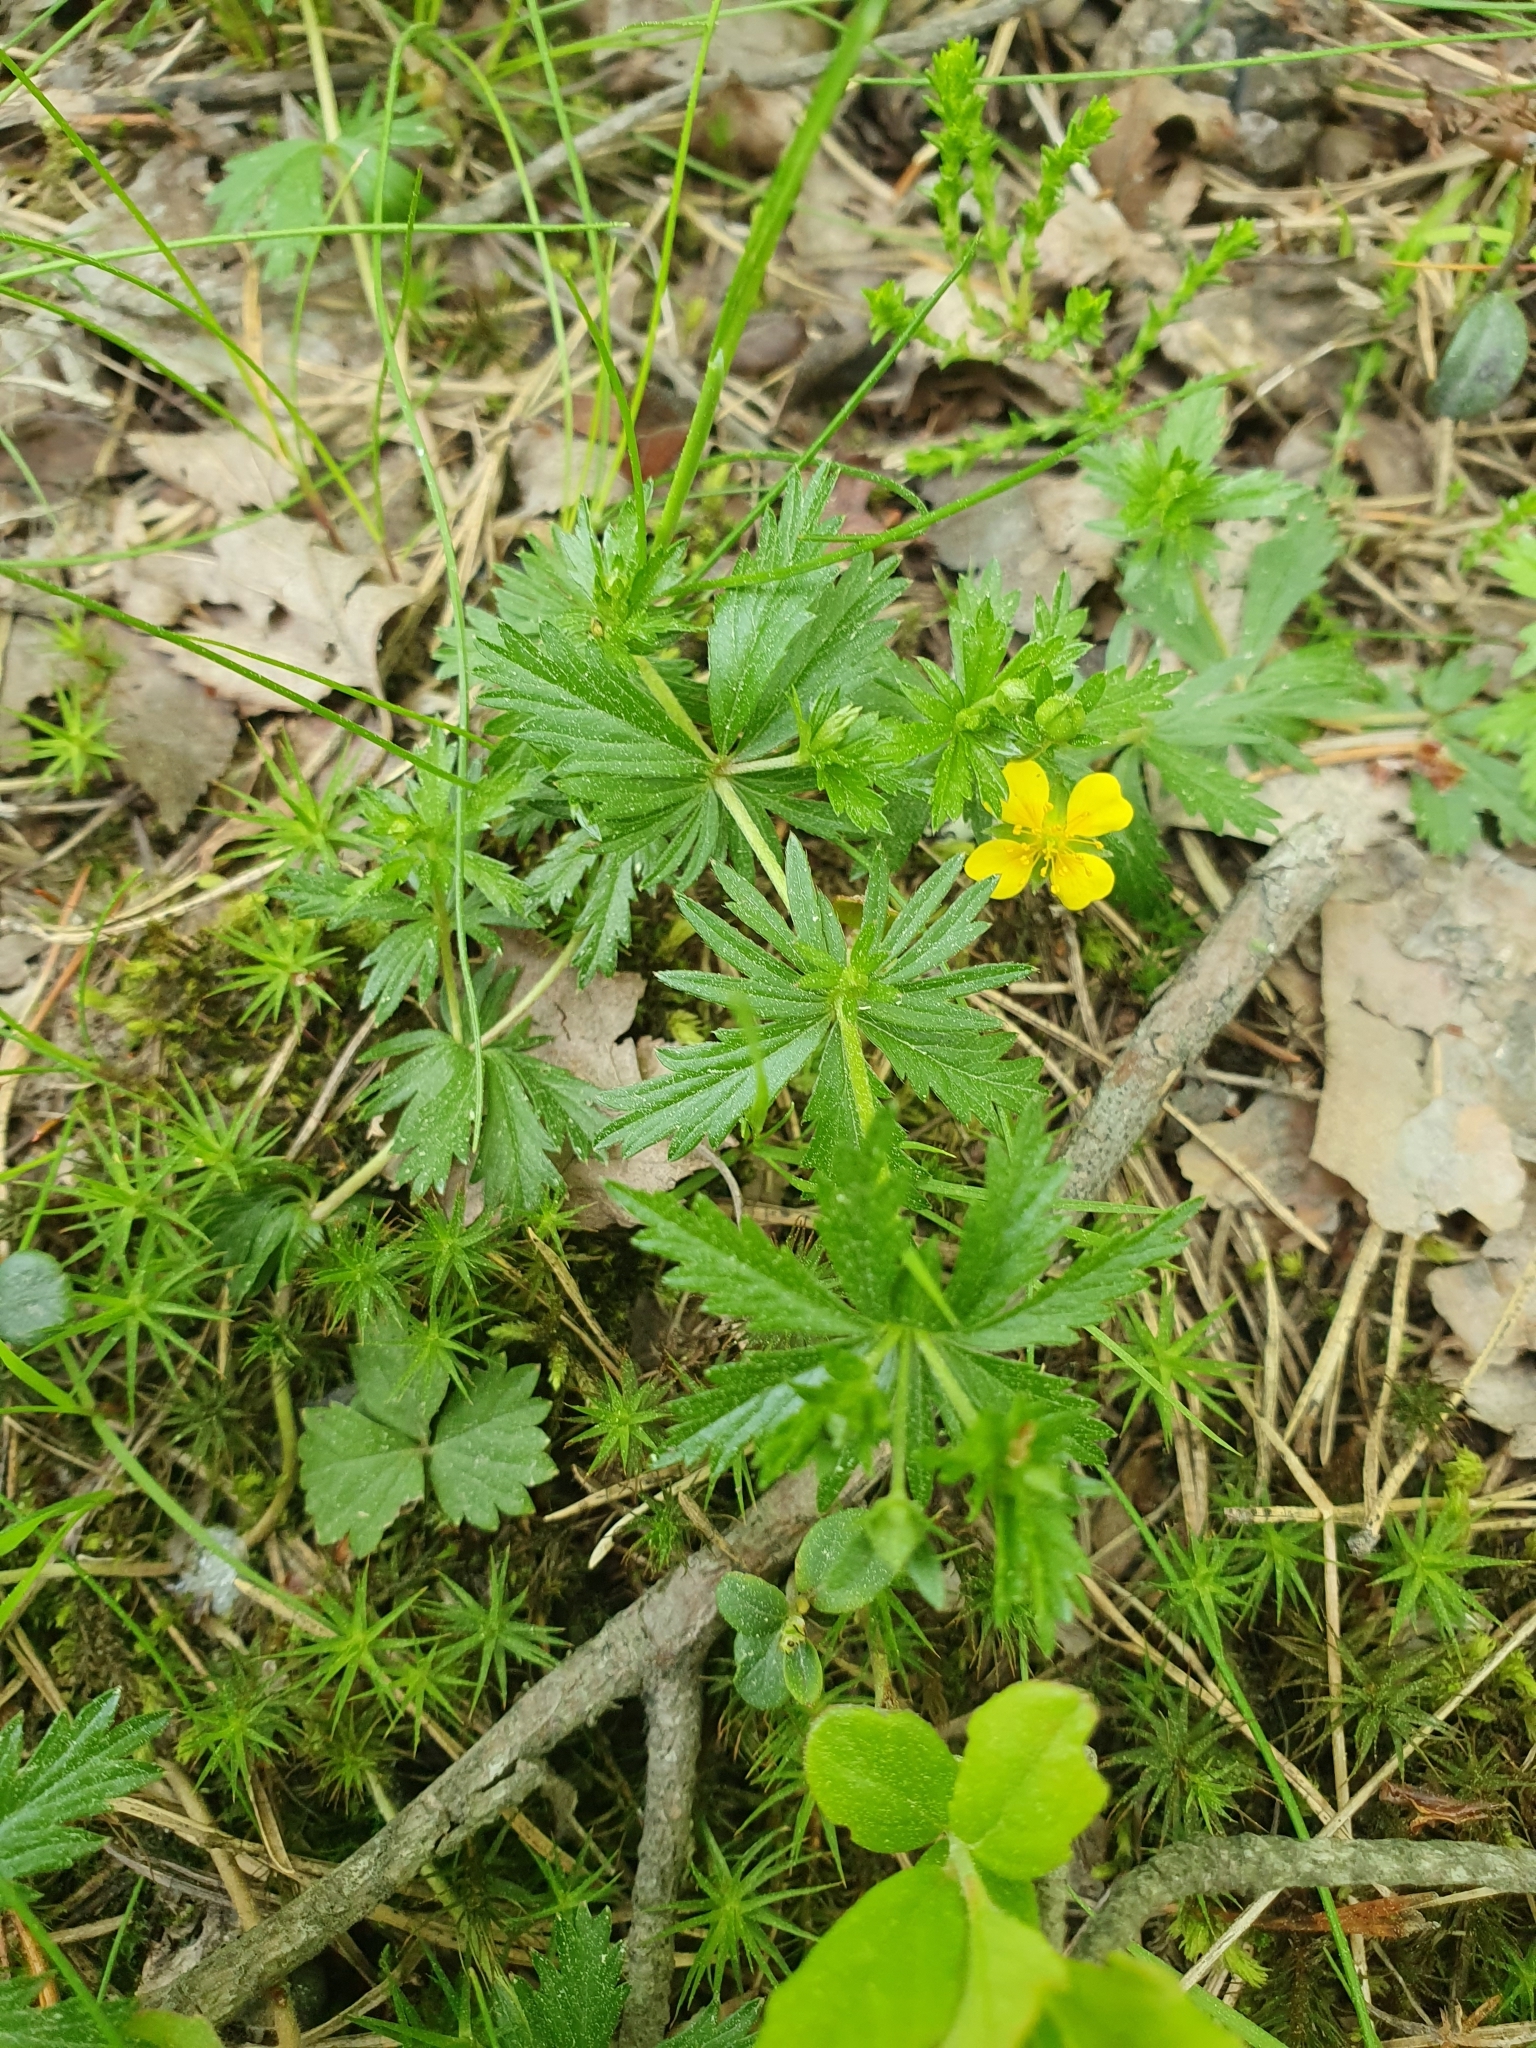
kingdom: Plantae
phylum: Tracheophyta
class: Magnoliopsida
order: Rosales
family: Rosaceae
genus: Potentilla
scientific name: Potentilla erecta
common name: Tormentil
